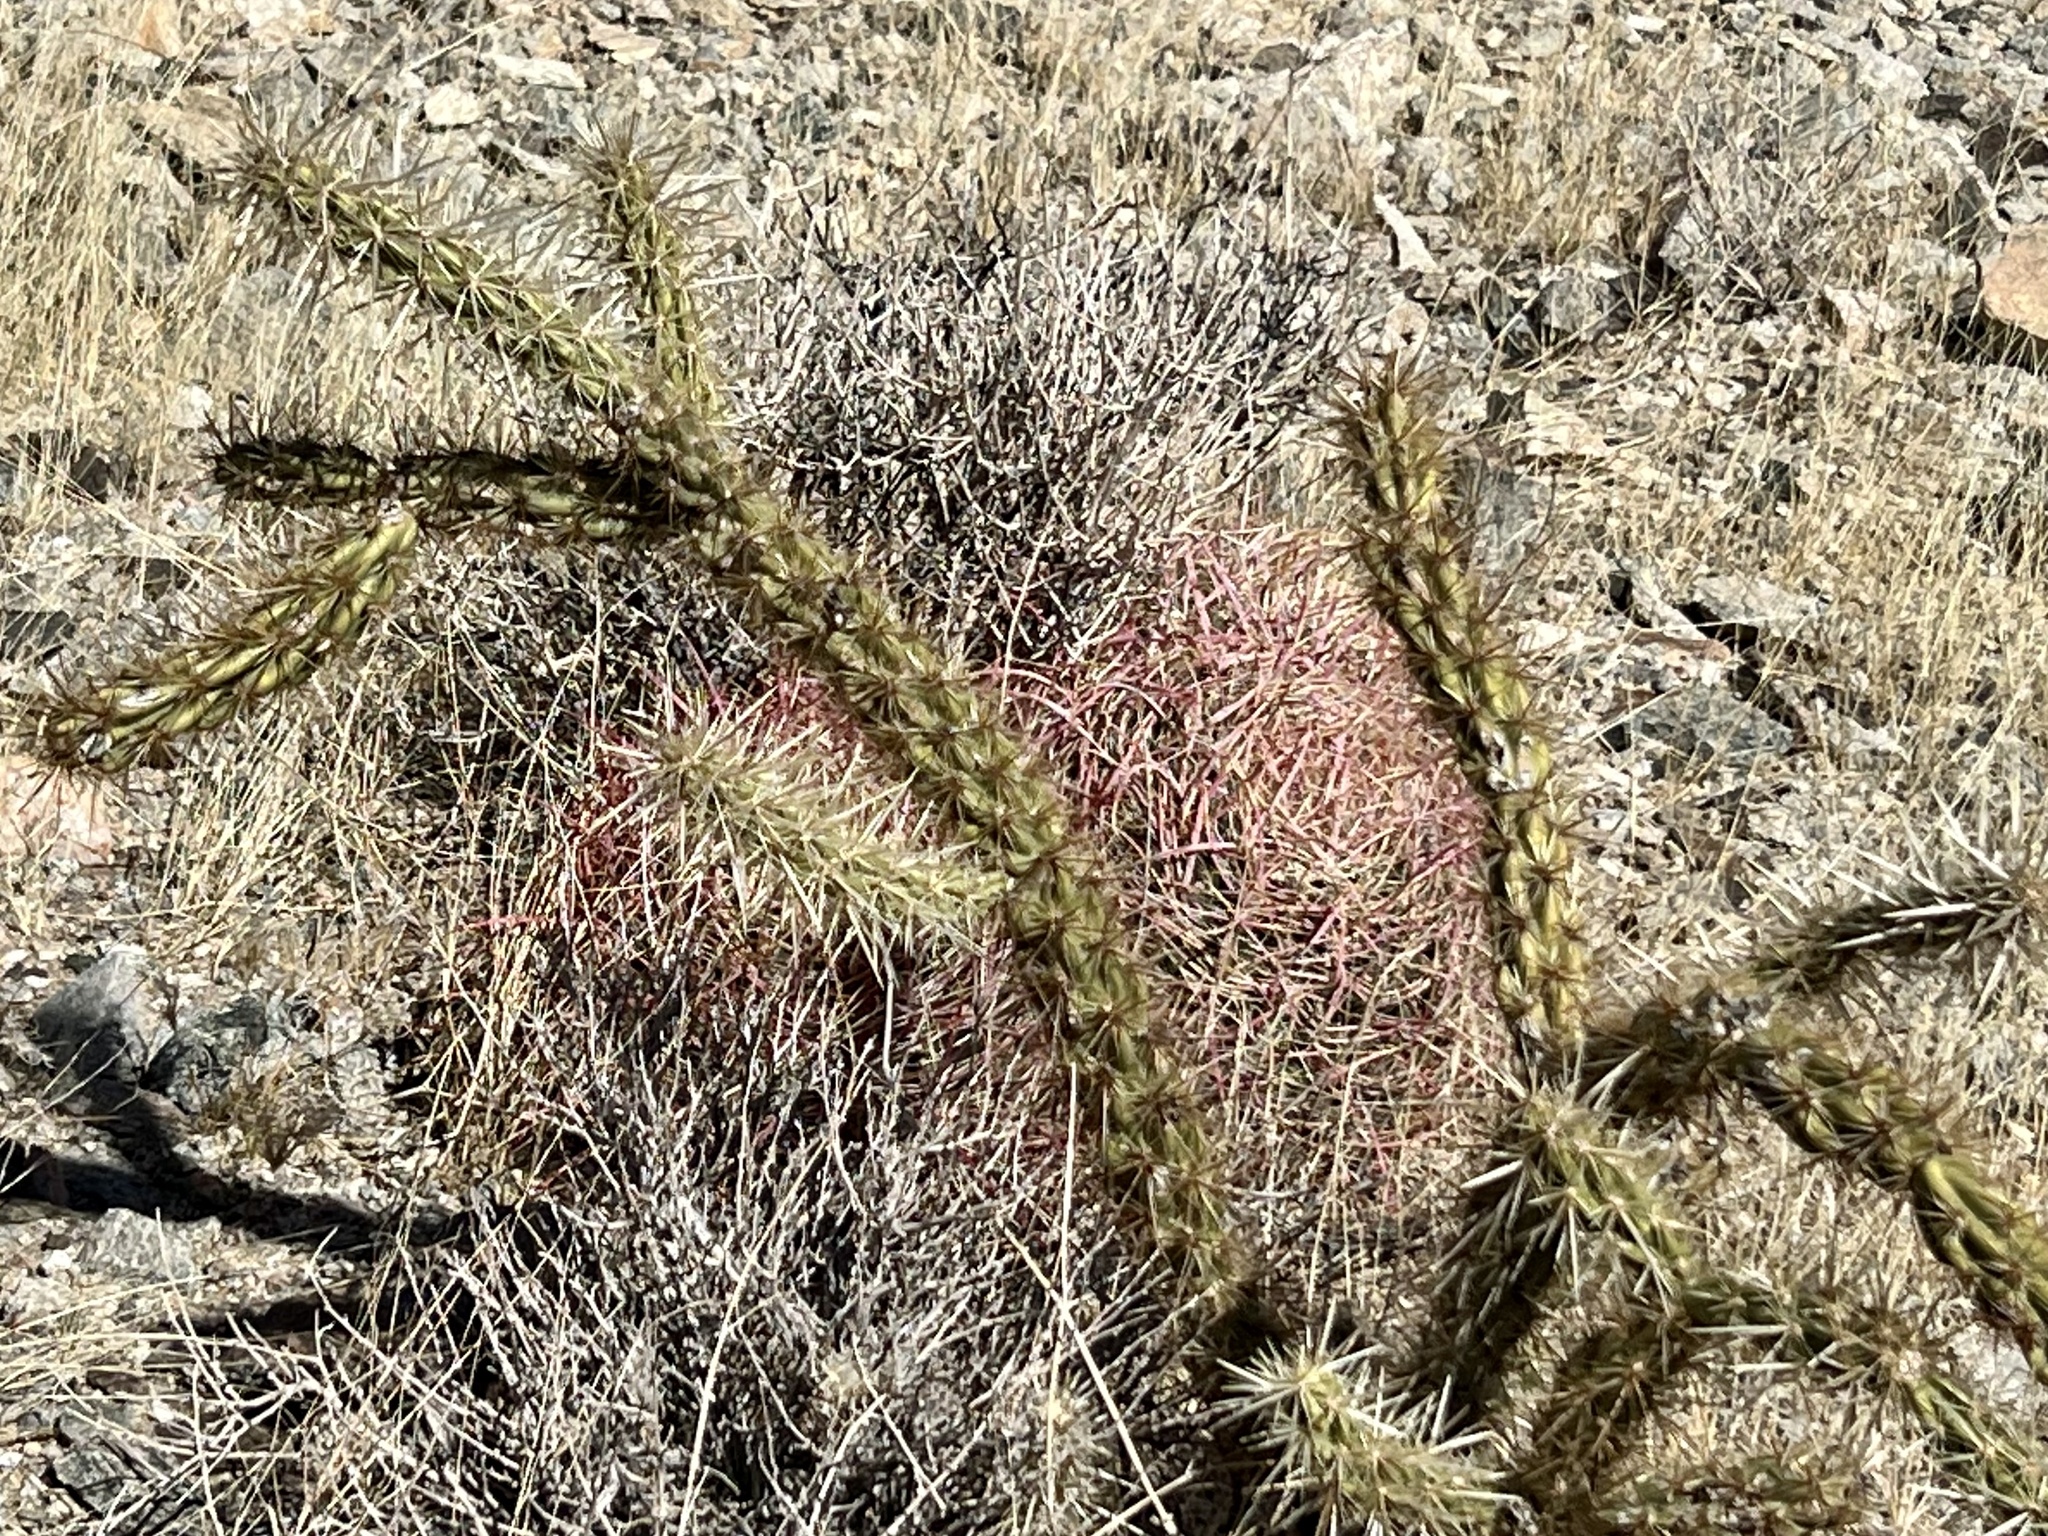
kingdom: Plantae
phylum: Tracheophyta
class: Magnoliopsida
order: Caryophyllales
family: Cactaceae
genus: Cylindropuntia
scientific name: Cylindropuntia acanthocarpa
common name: Buckhorn cholla
